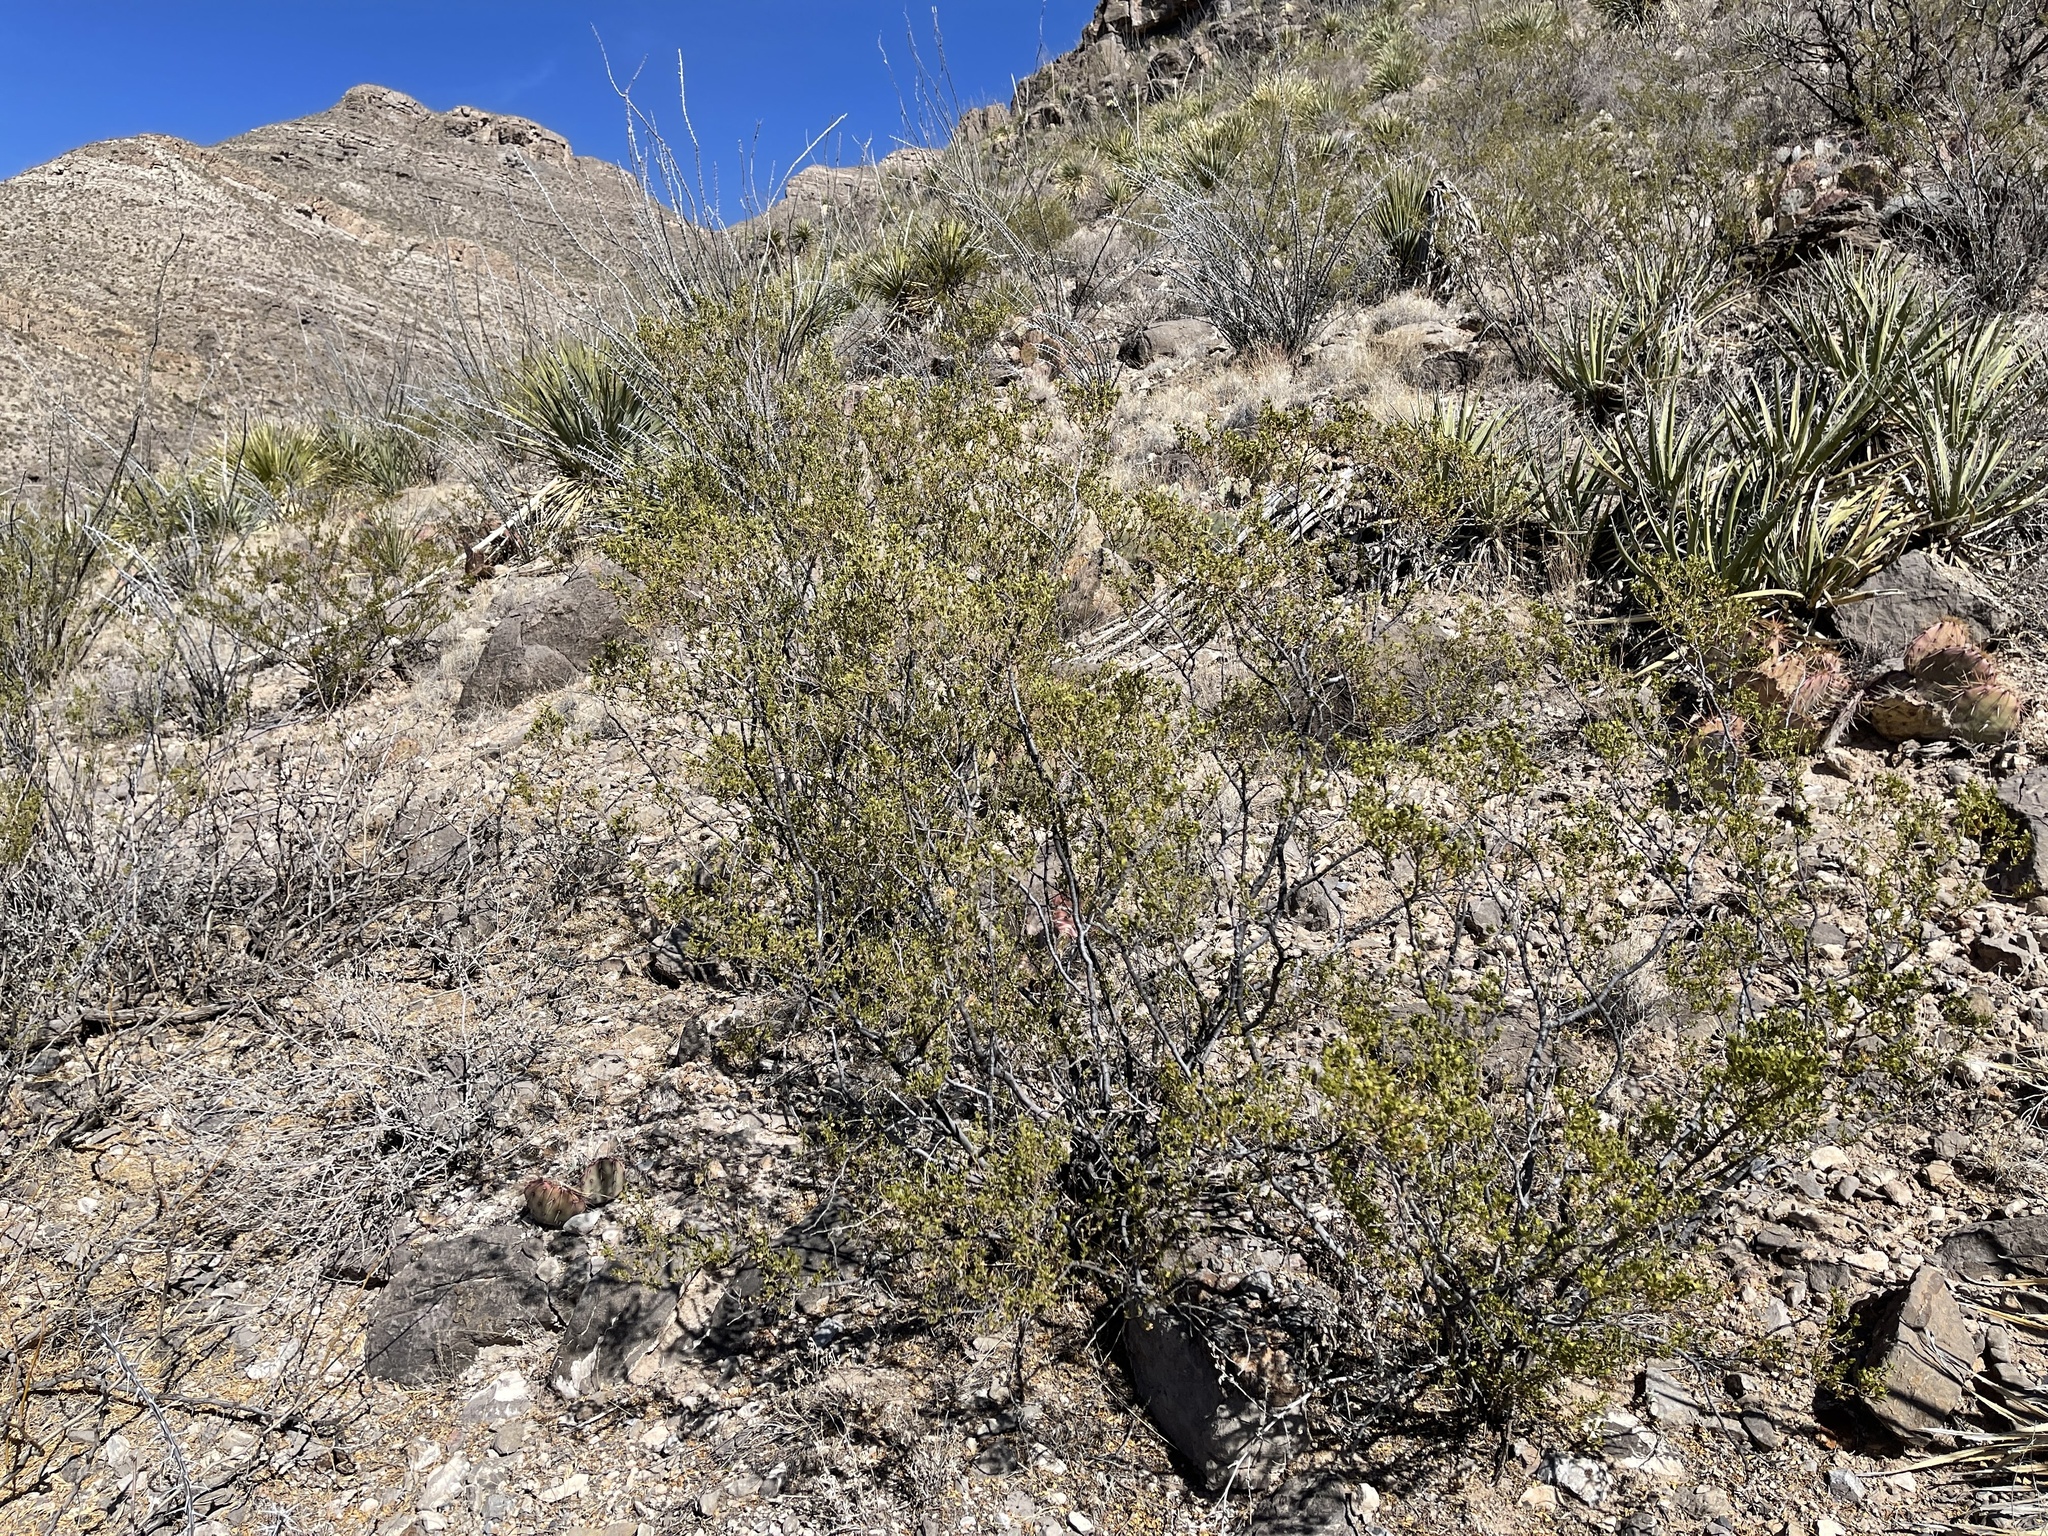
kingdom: Plantae
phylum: Tracheophyta
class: Magnoliopsida
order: Zygophyllales
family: Zygophyllaceae
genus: Larrea
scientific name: Larrea tridentata
